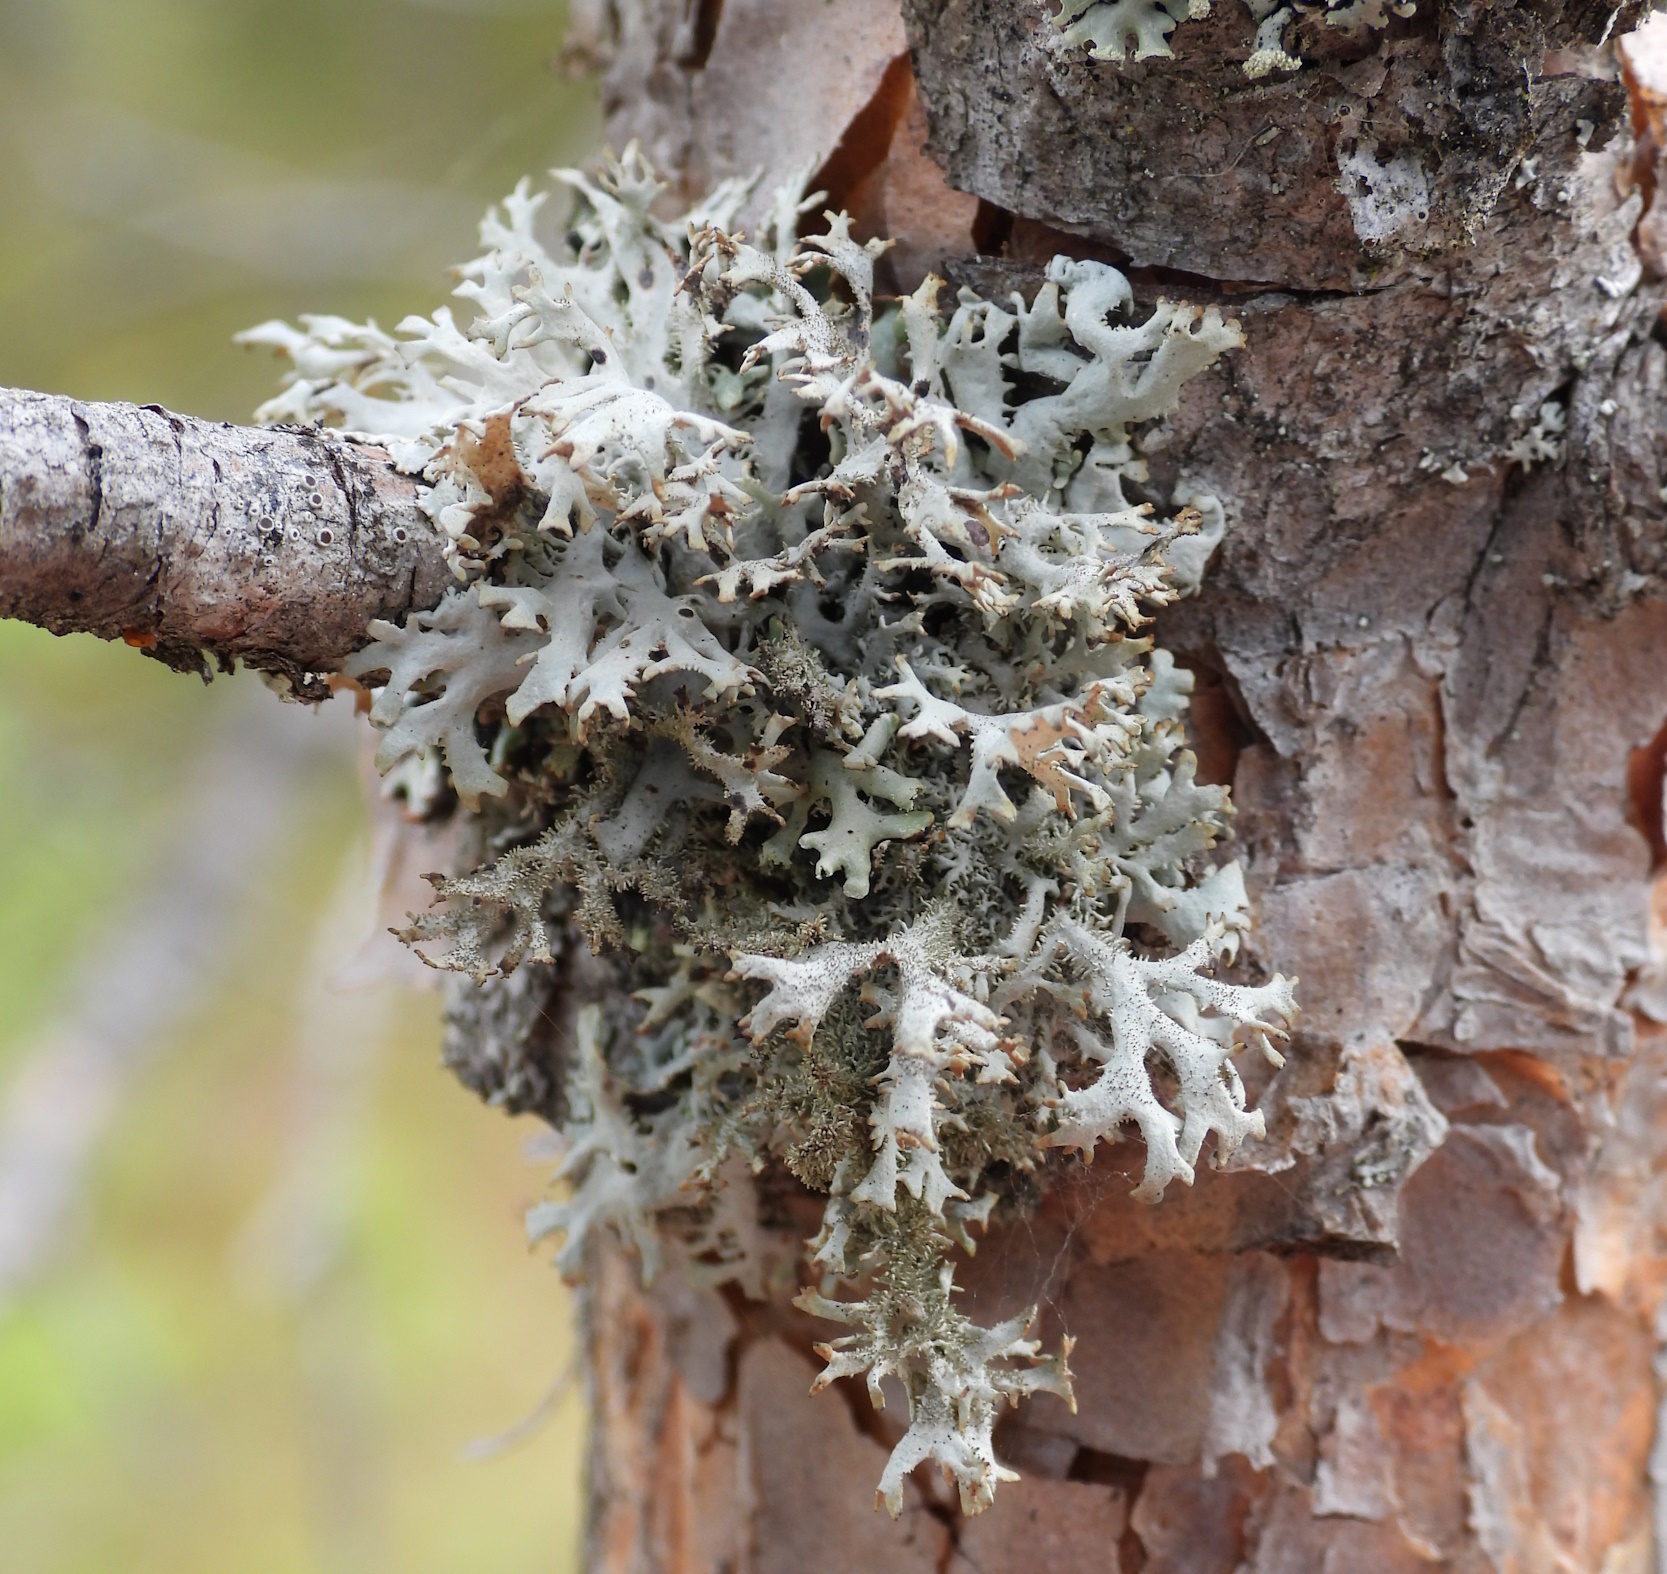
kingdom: Fungi
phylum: Ascomycota
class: Lecanoromycetes
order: Lecanorales
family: Parmeliaceae
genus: Pseudevernia
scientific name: Pseudevernia furfuracea
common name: Tree moss
